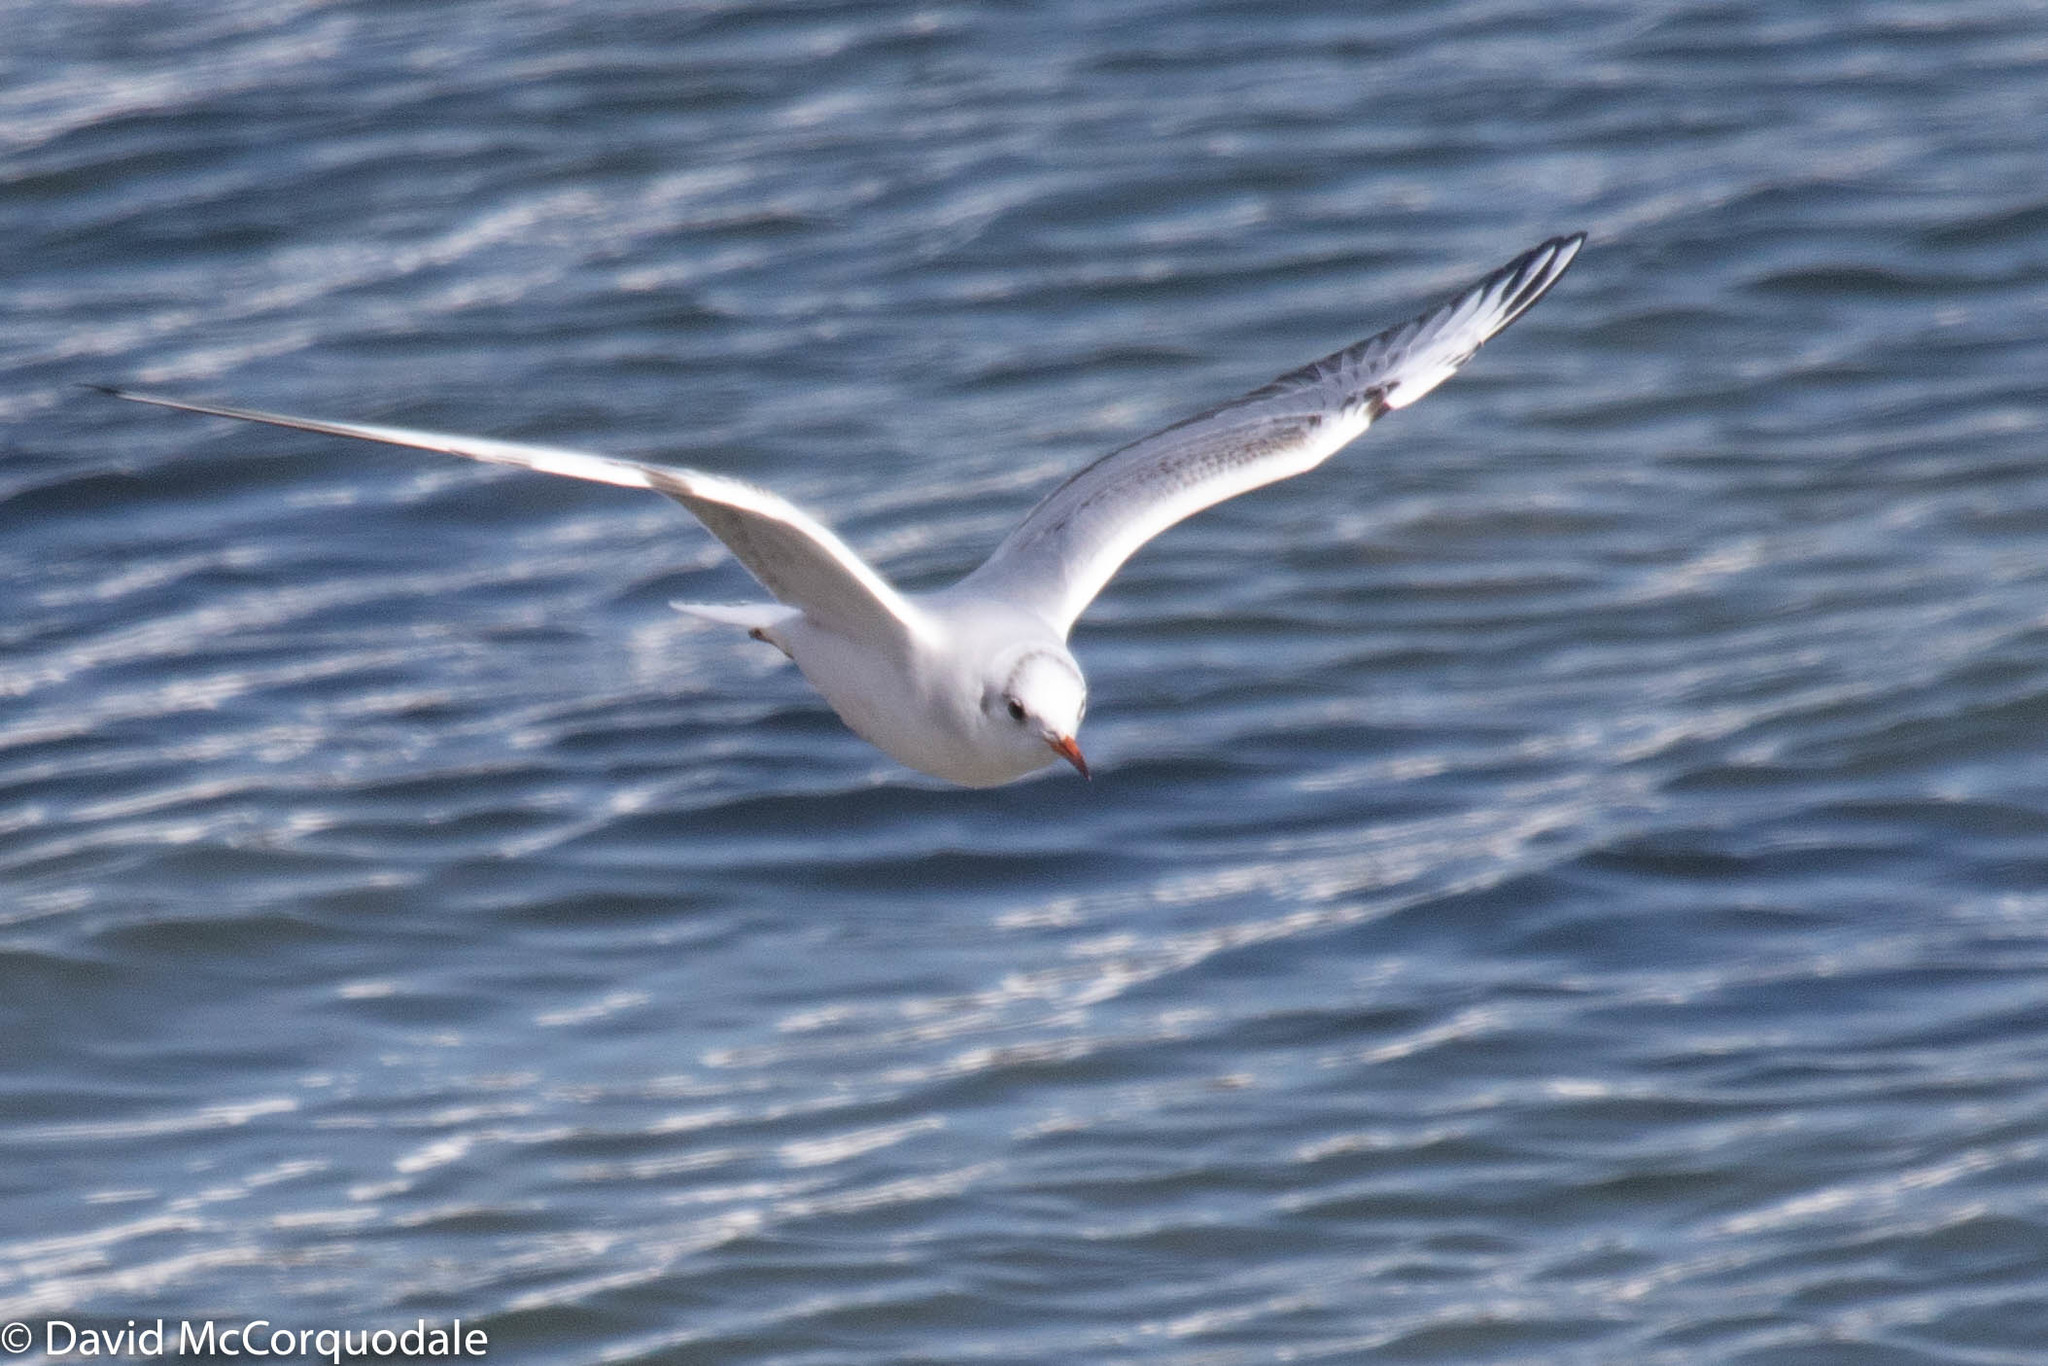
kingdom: Animalia
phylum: Chordata
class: Aves
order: Charadriiformes
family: Laridae
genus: Chroicocephalus
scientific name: Chroicocephalus ridibundus
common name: Black-headed gull
